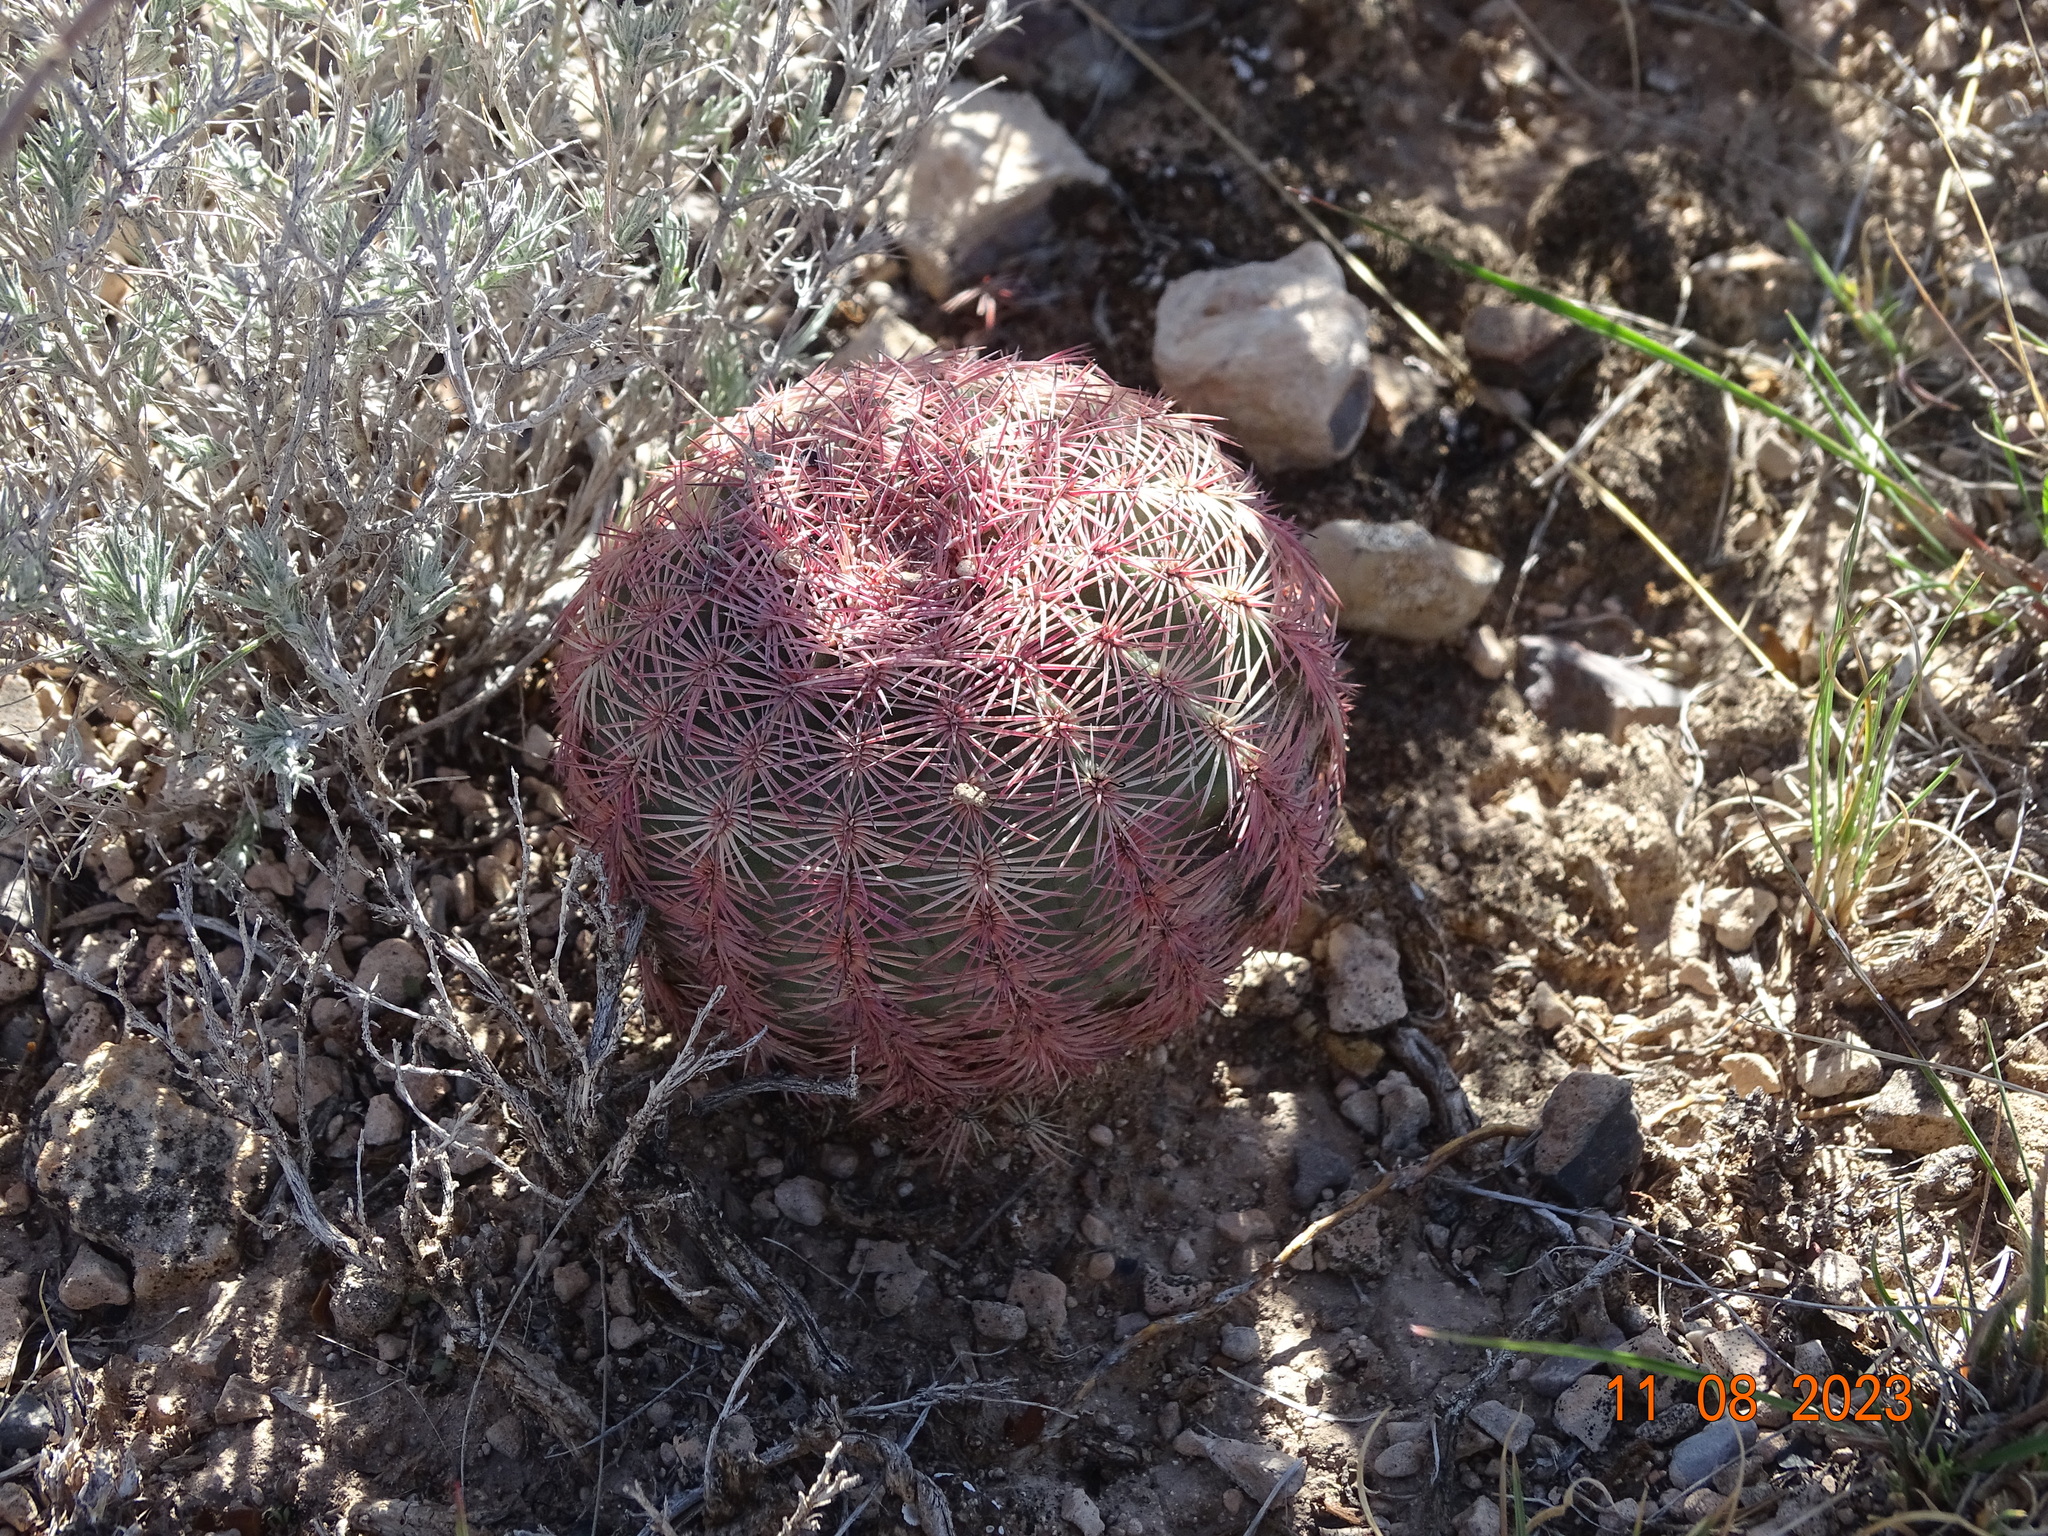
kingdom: Plantae
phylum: Tracheophyta
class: Magnoliopsida
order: Caryophyllales
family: Cactaceae
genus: Echinocereus
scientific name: Echinocereus pectinatus
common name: Rainbow cactus
